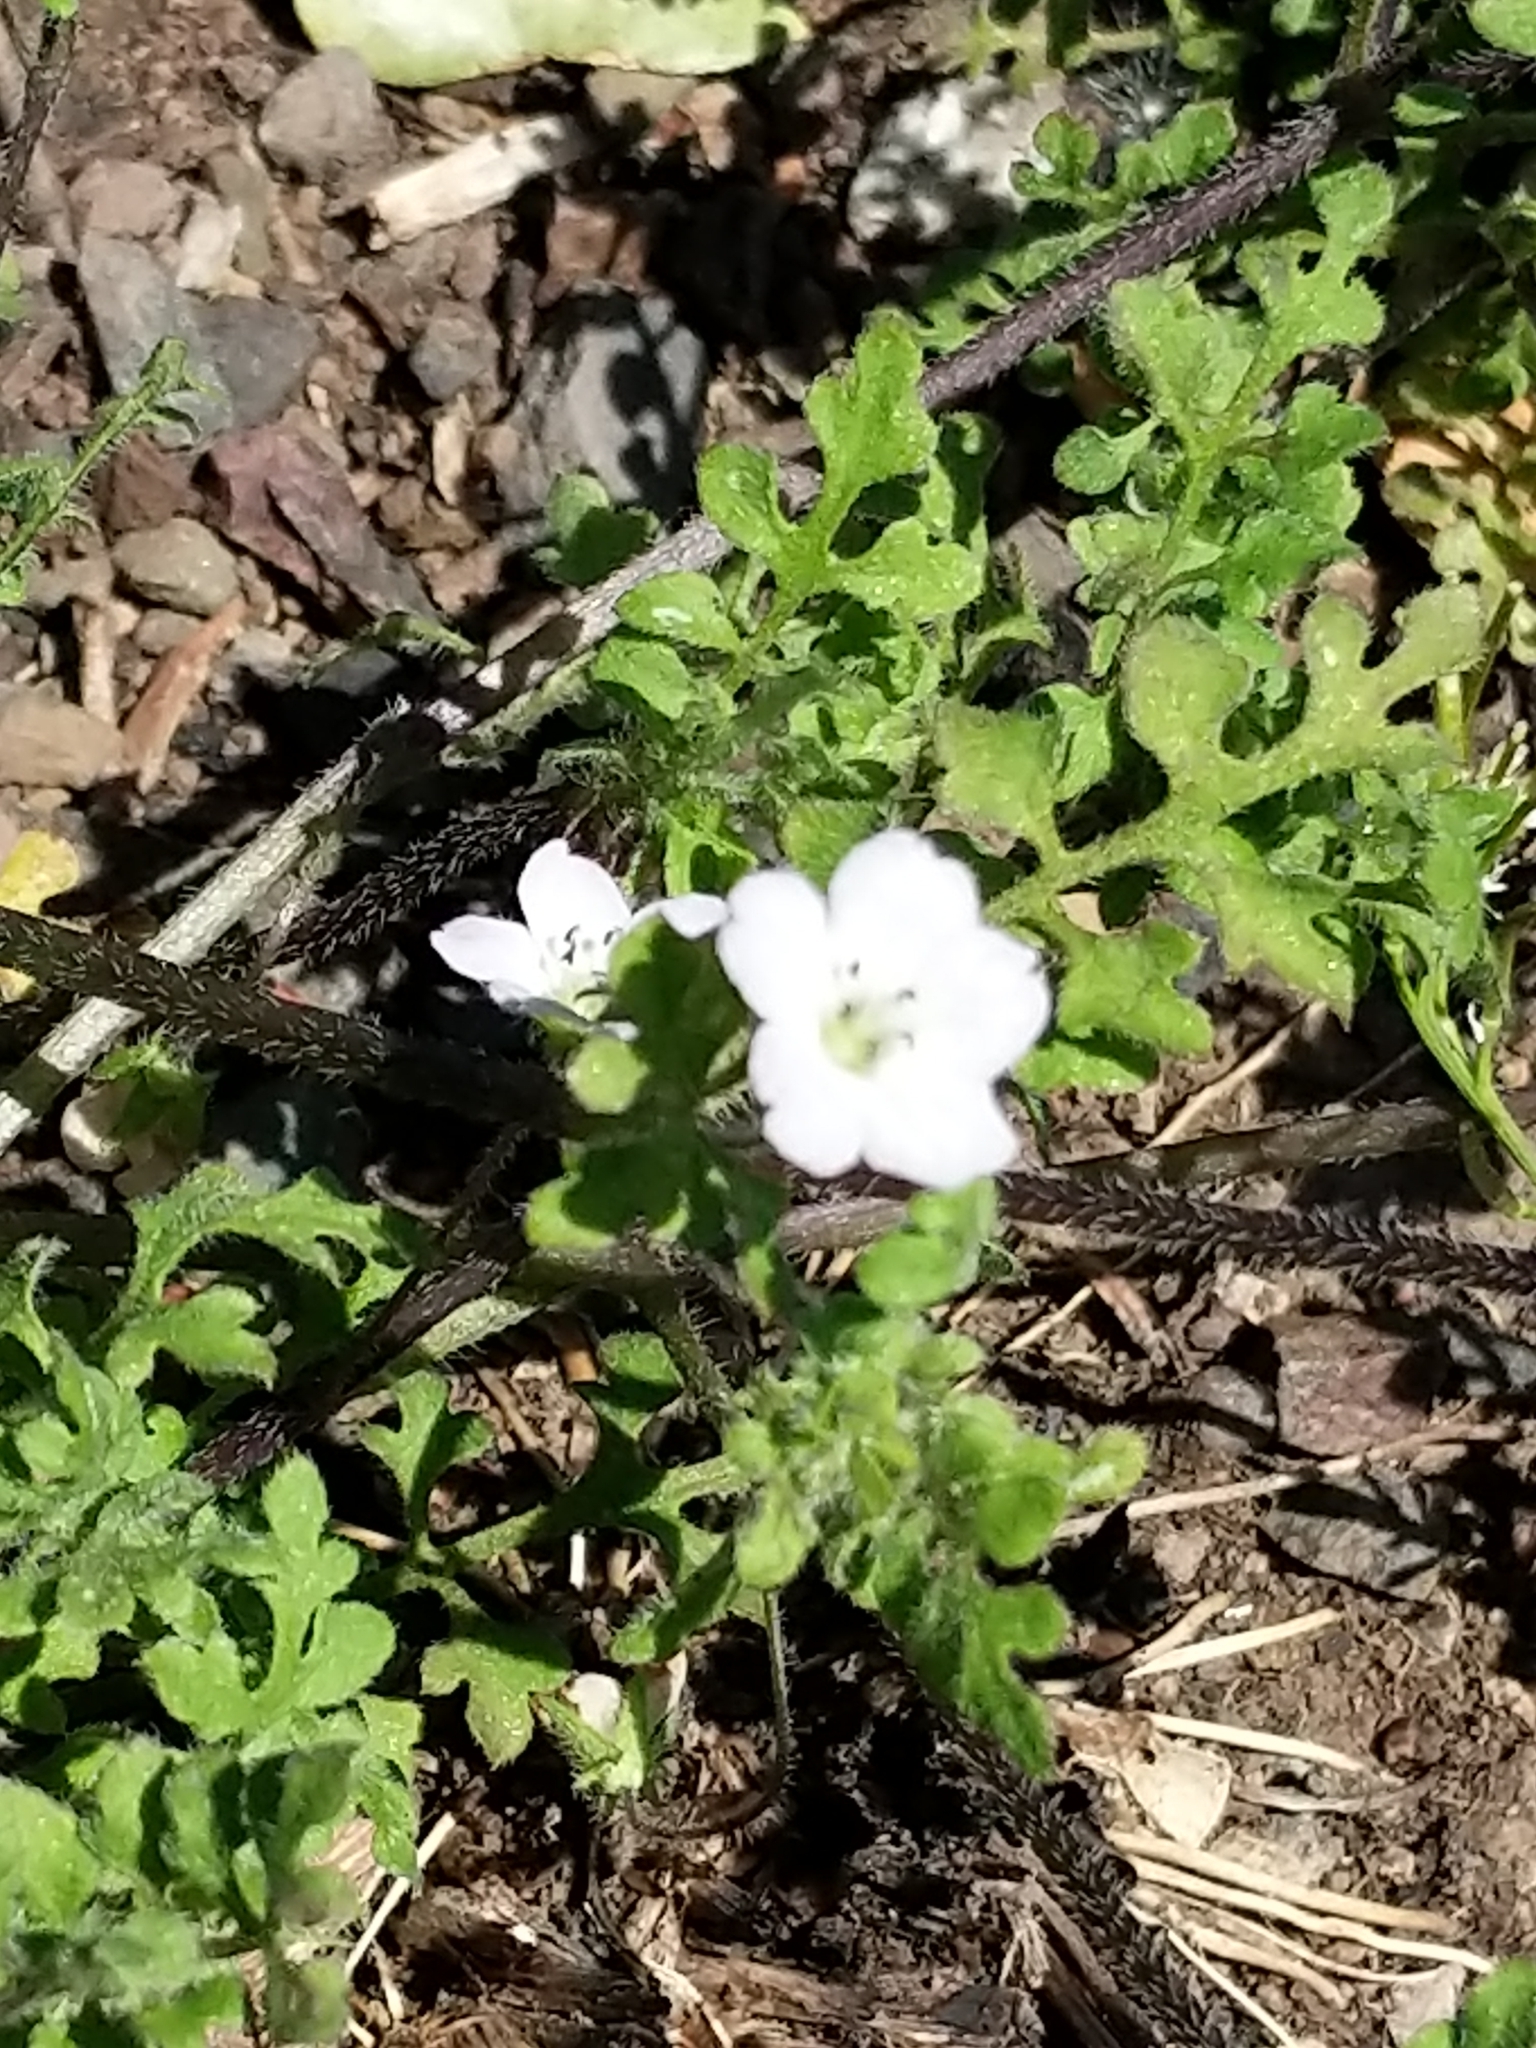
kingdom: Plantae
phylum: Tracheophyta
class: Magnoliopsida
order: Boraginales
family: Hydrophyllaceae
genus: Nemophila
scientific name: Nemophila heterophylla
